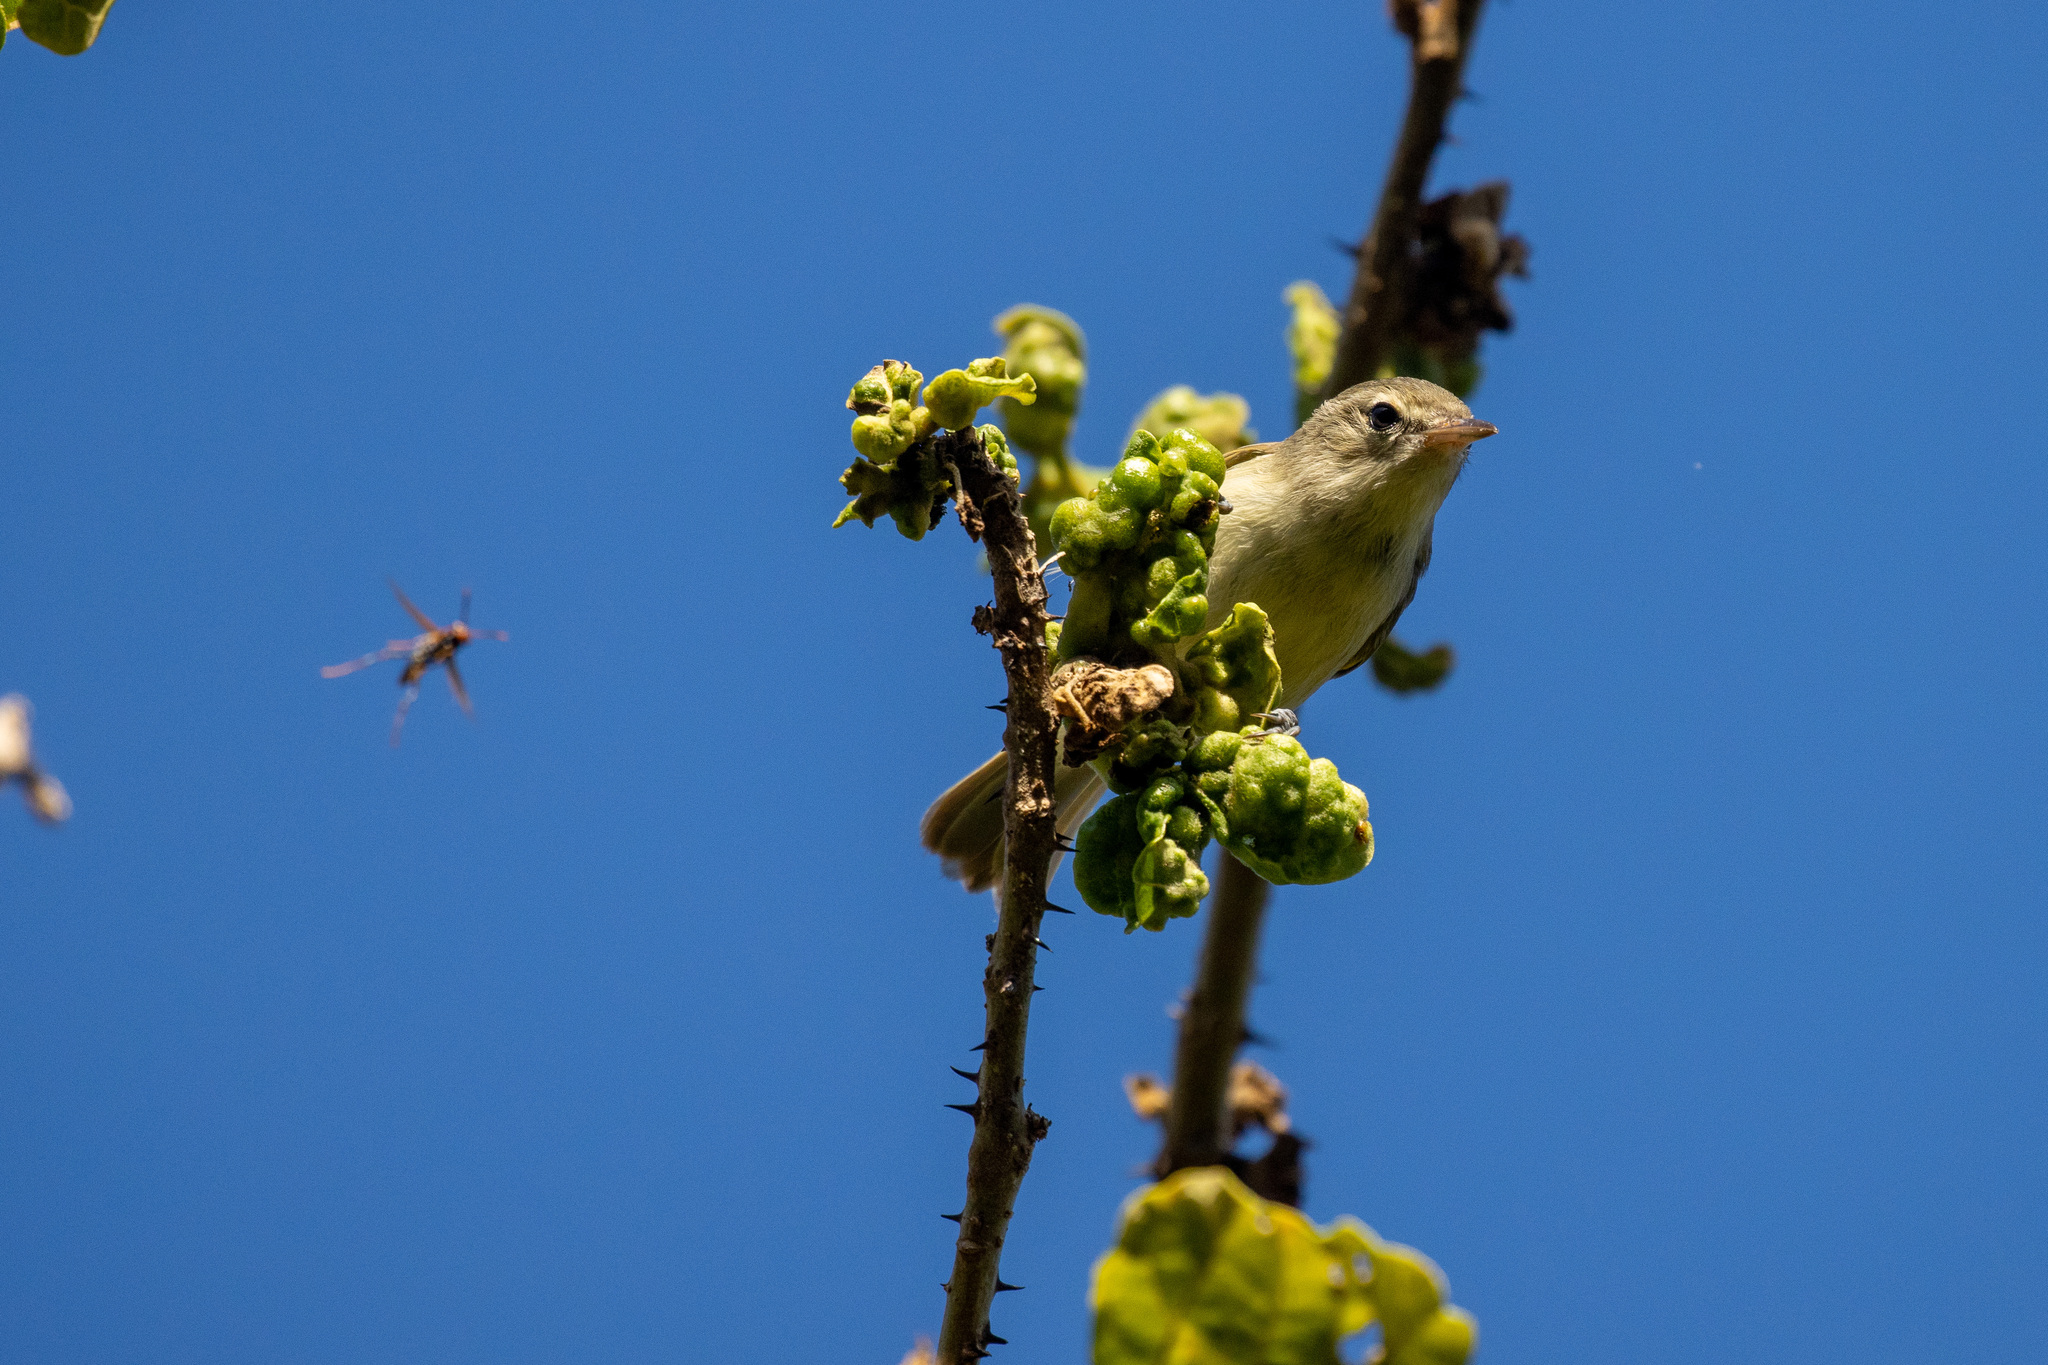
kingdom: Animalia
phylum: Chordata
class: Aves
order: Passeriformes
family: Vireonidae
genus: Vireo
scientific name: Vireo gracilirostris
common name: Noronha vireo
